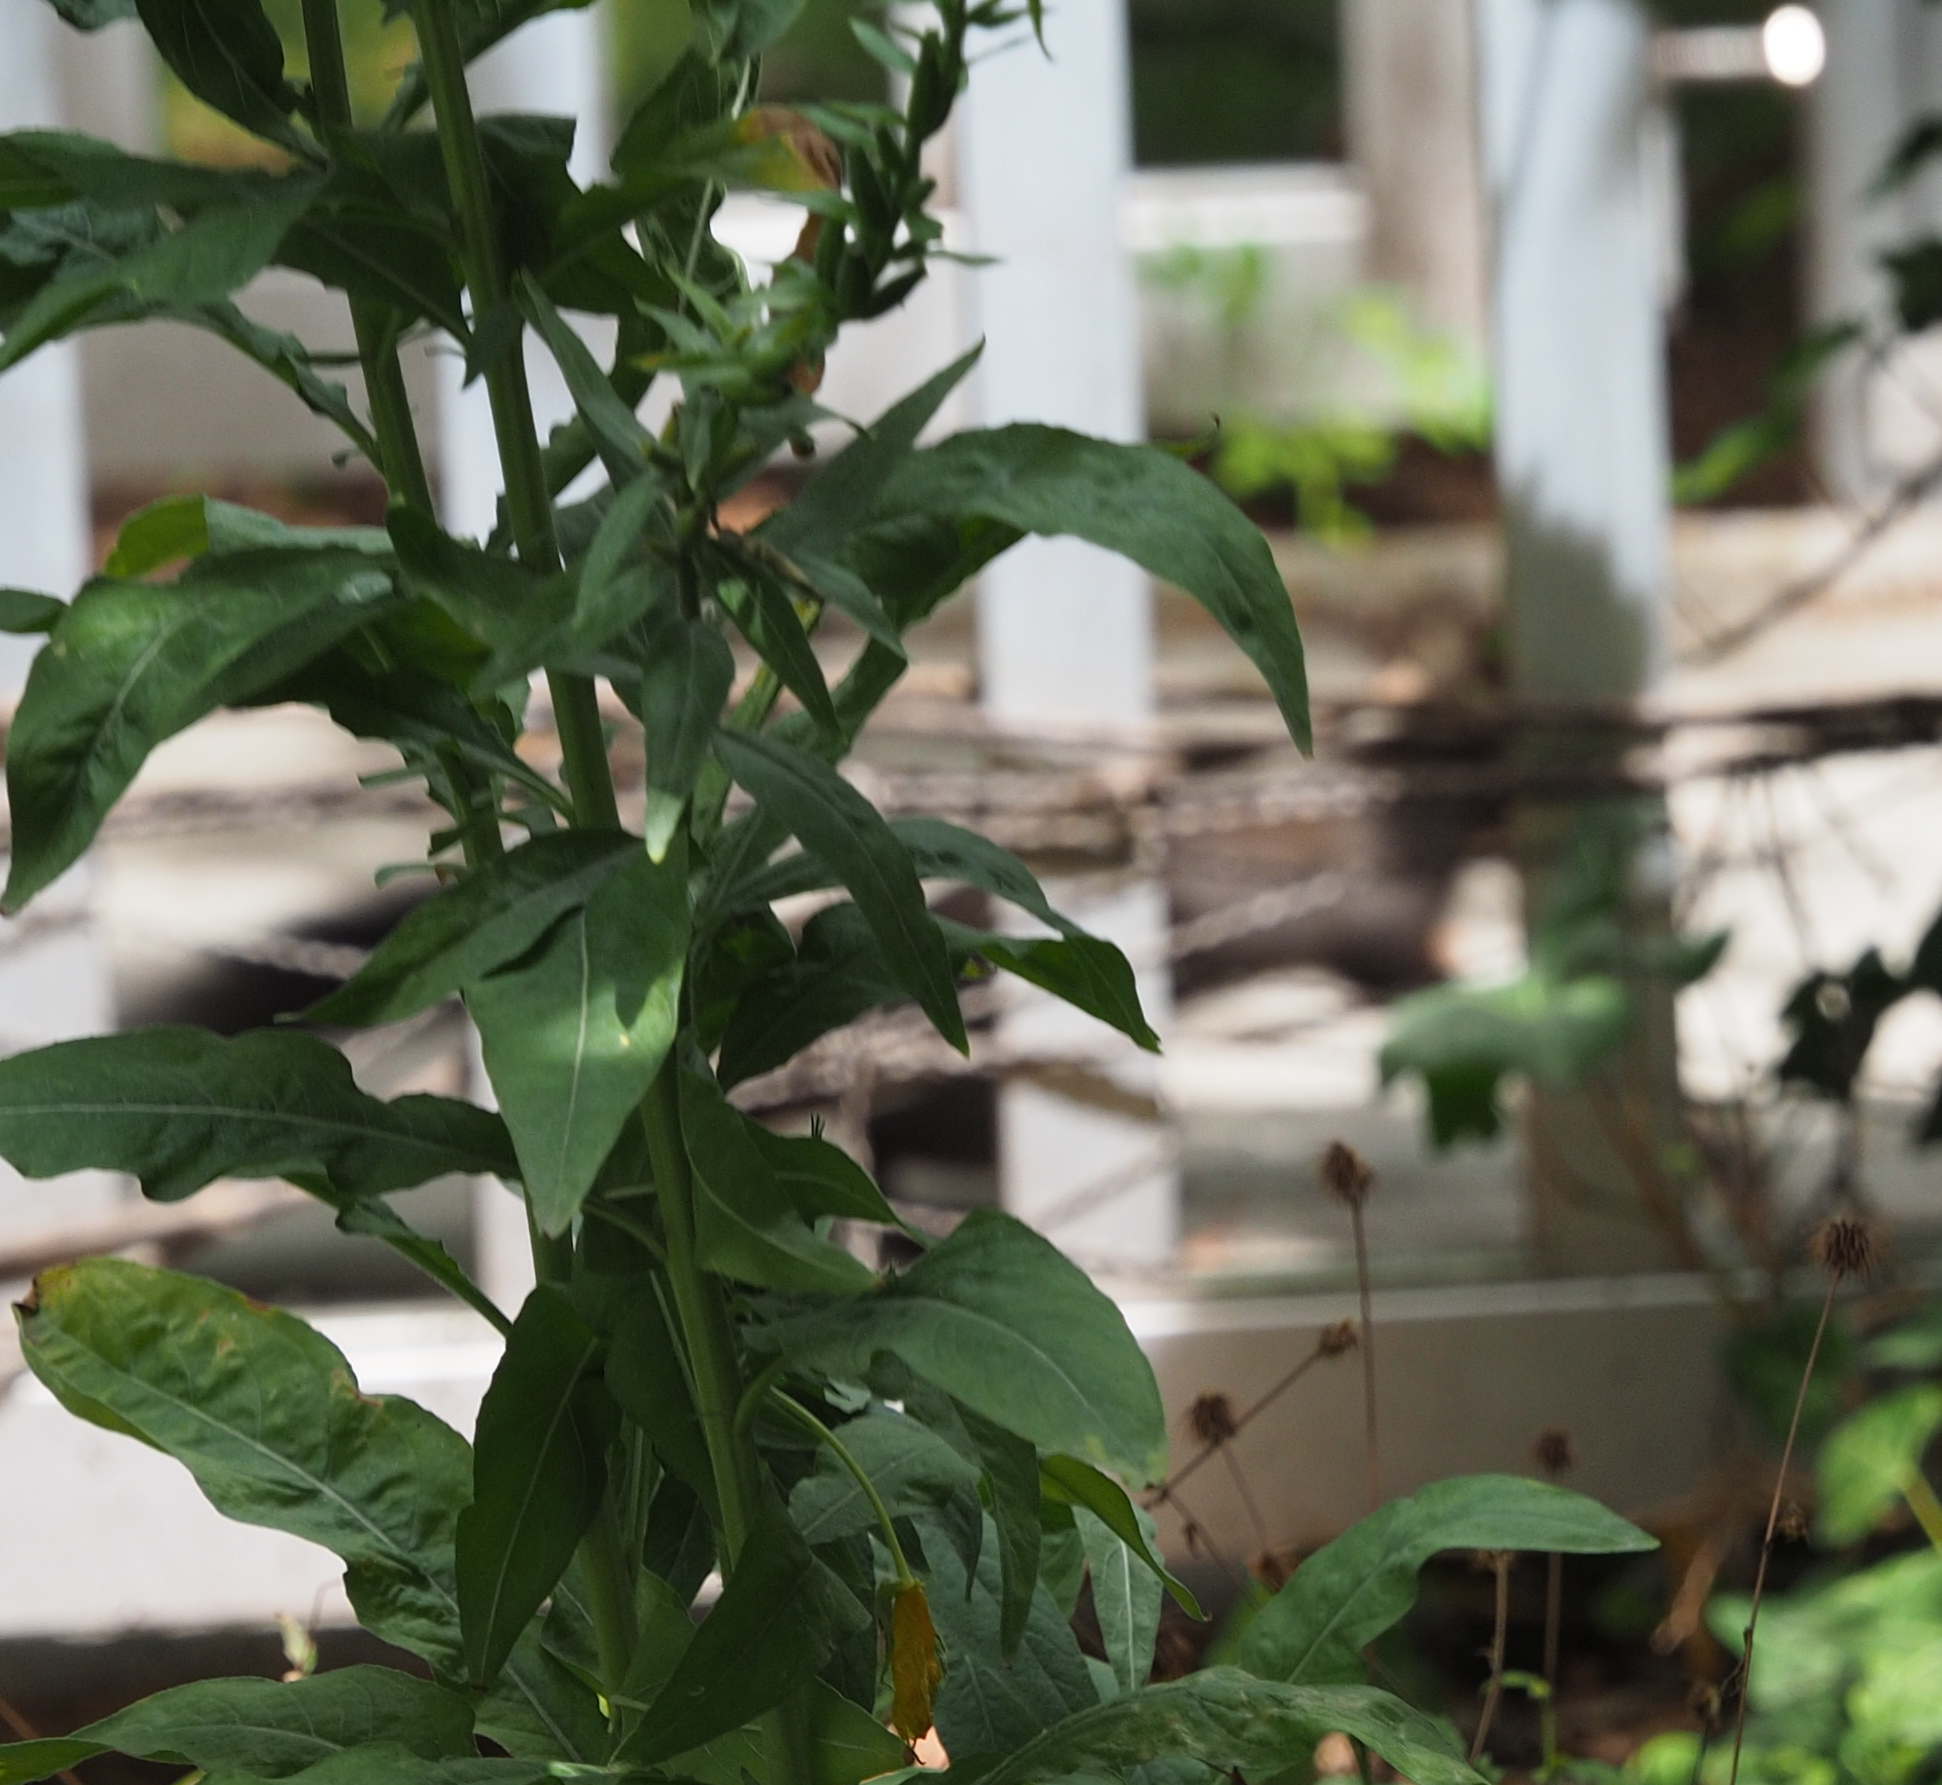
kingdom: Animalia
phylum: Chordata
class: Mammalia
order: Rodentia
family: Sciuridae
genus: Sciurus
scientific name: Sciurus vulgaris
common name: Eurasian red squirrel
